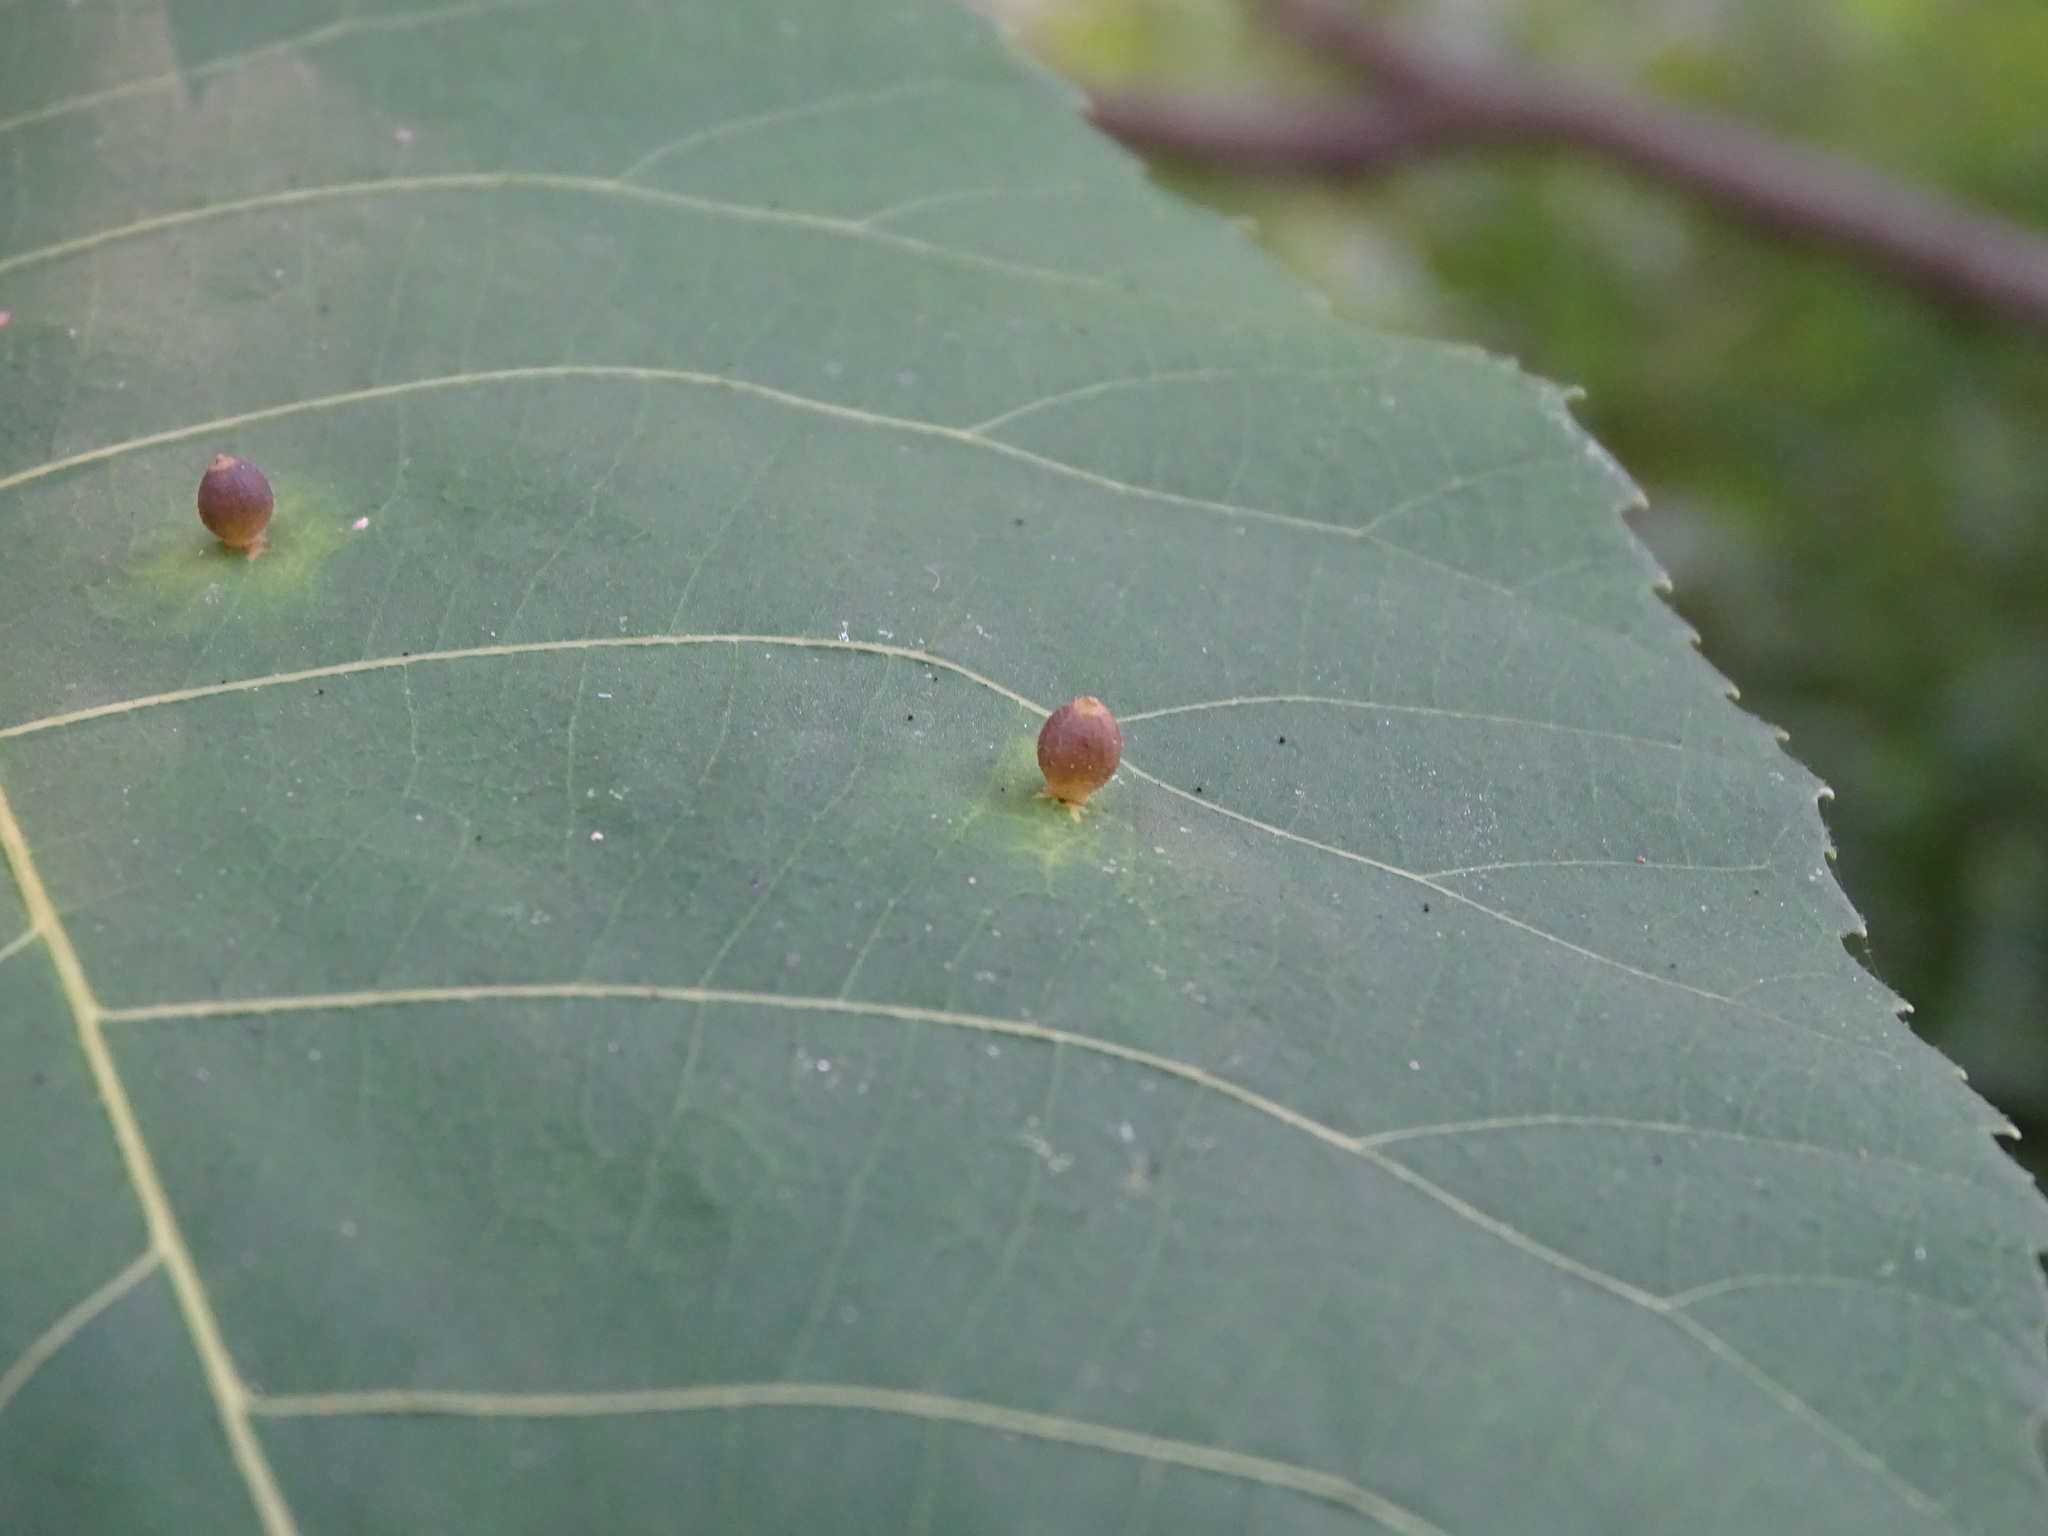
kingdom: Animalia
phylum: Arthropoda
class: Insecta
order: Diptera
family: Cecidomyiidae
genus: Caryomyia
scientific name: Caryomyia viscidolium
